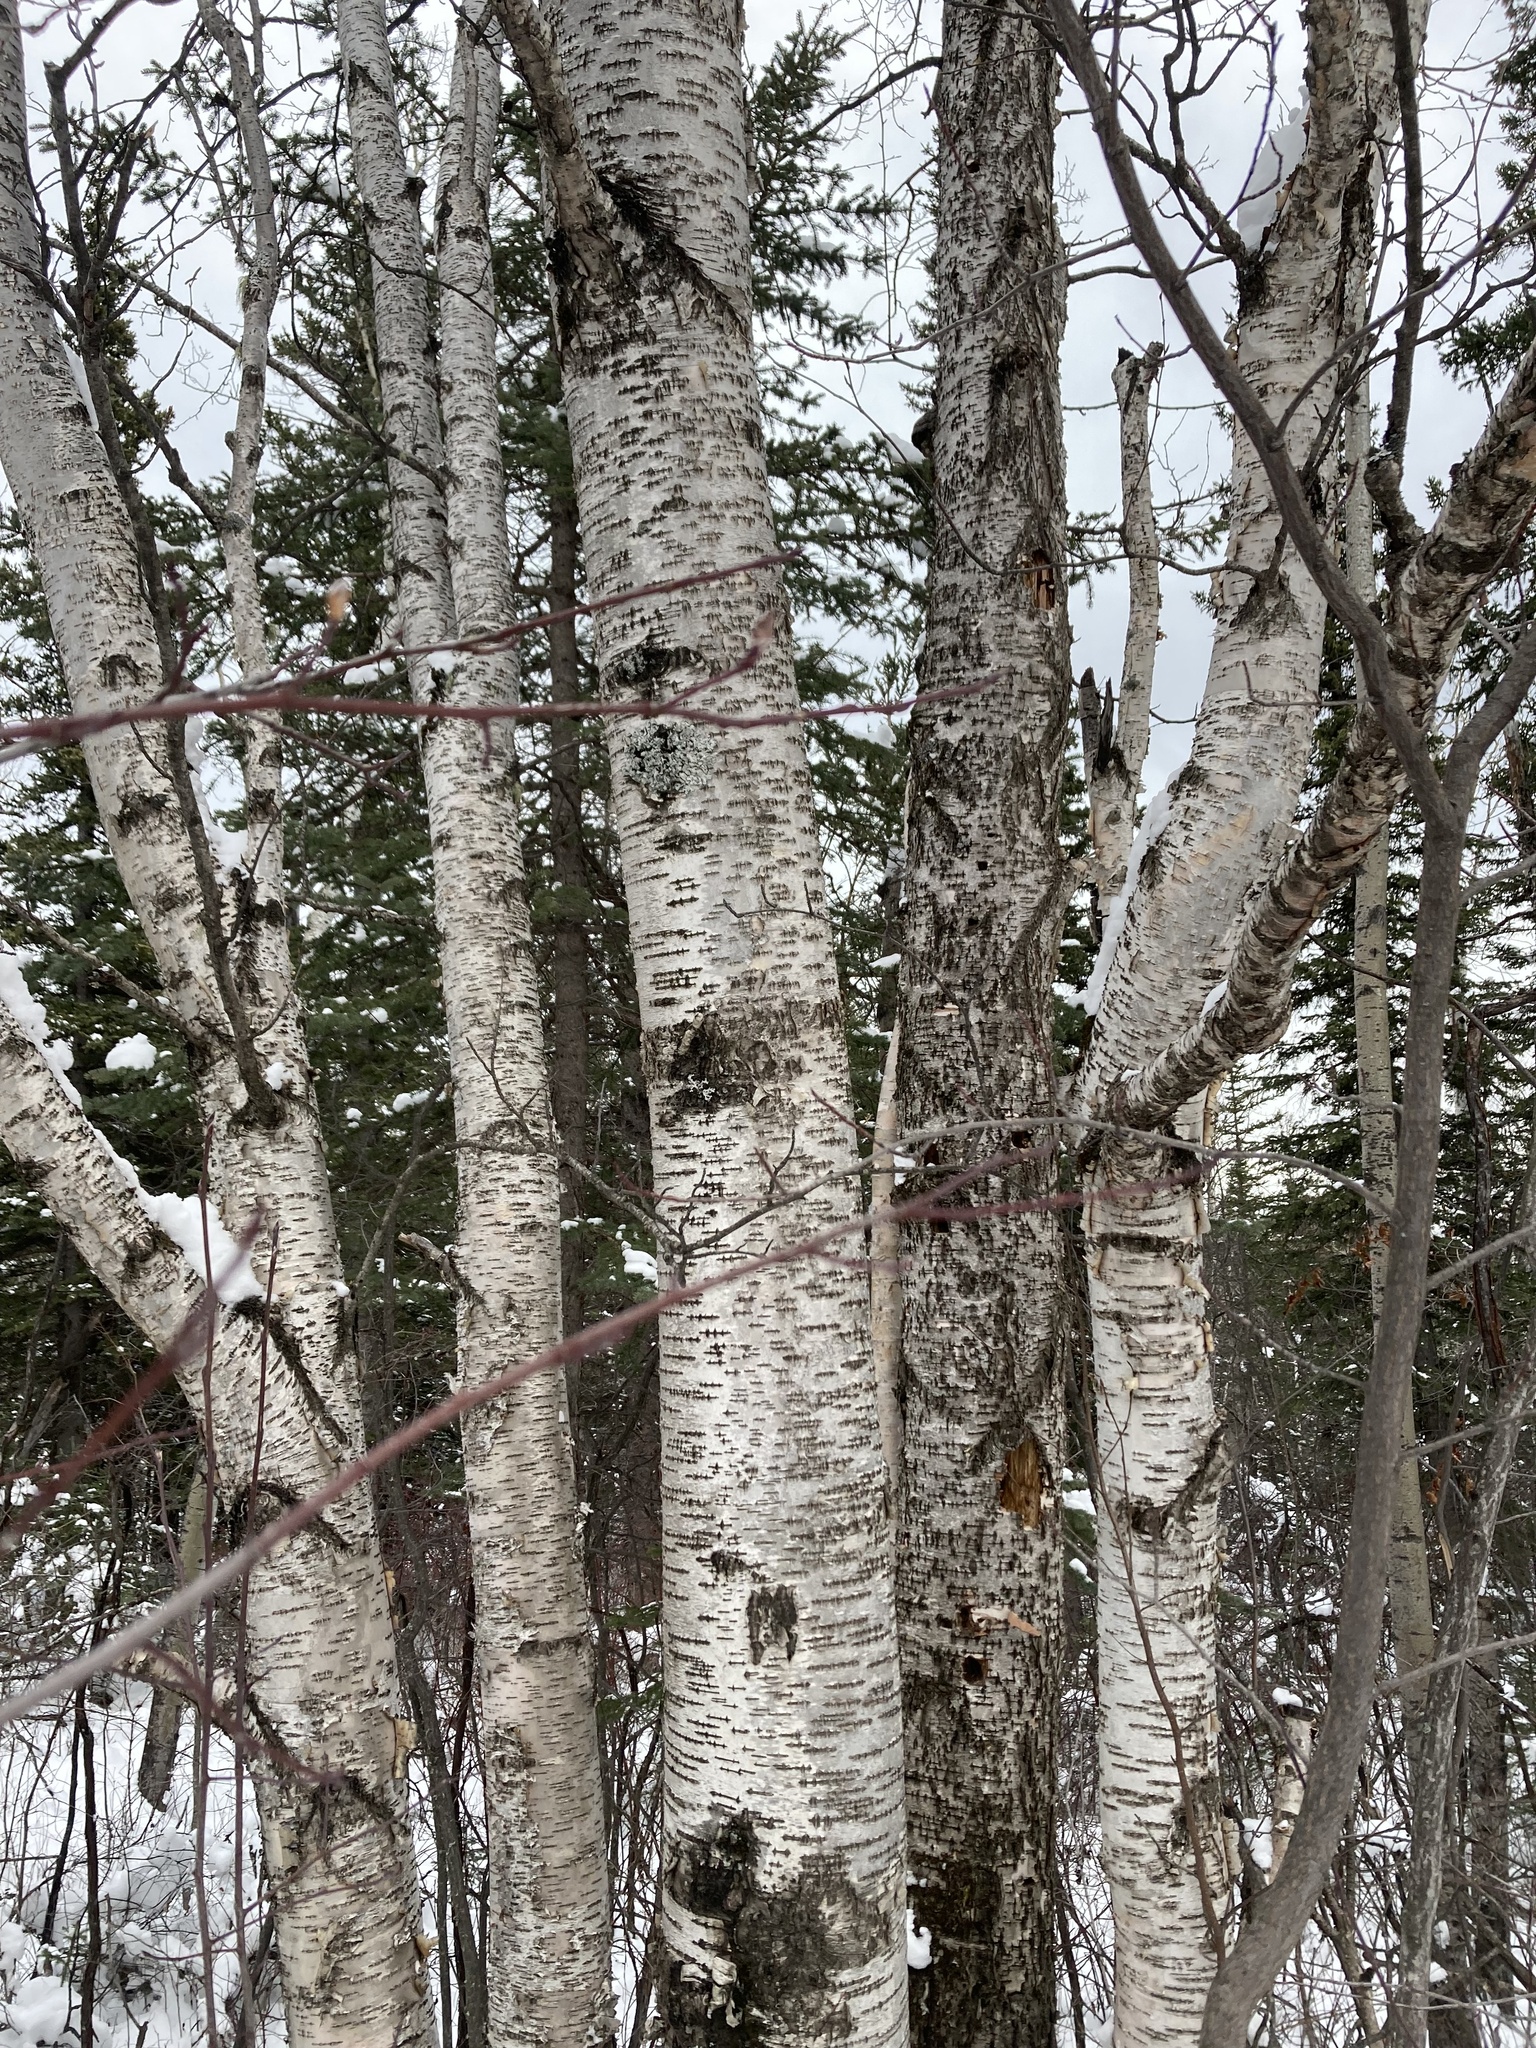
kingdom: Plantae
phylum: Tracheophyta
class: Magnoliopsida
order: Fagales
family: Betulaceae
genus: Betula
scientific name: Betula papyrifera
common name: Paper birch
